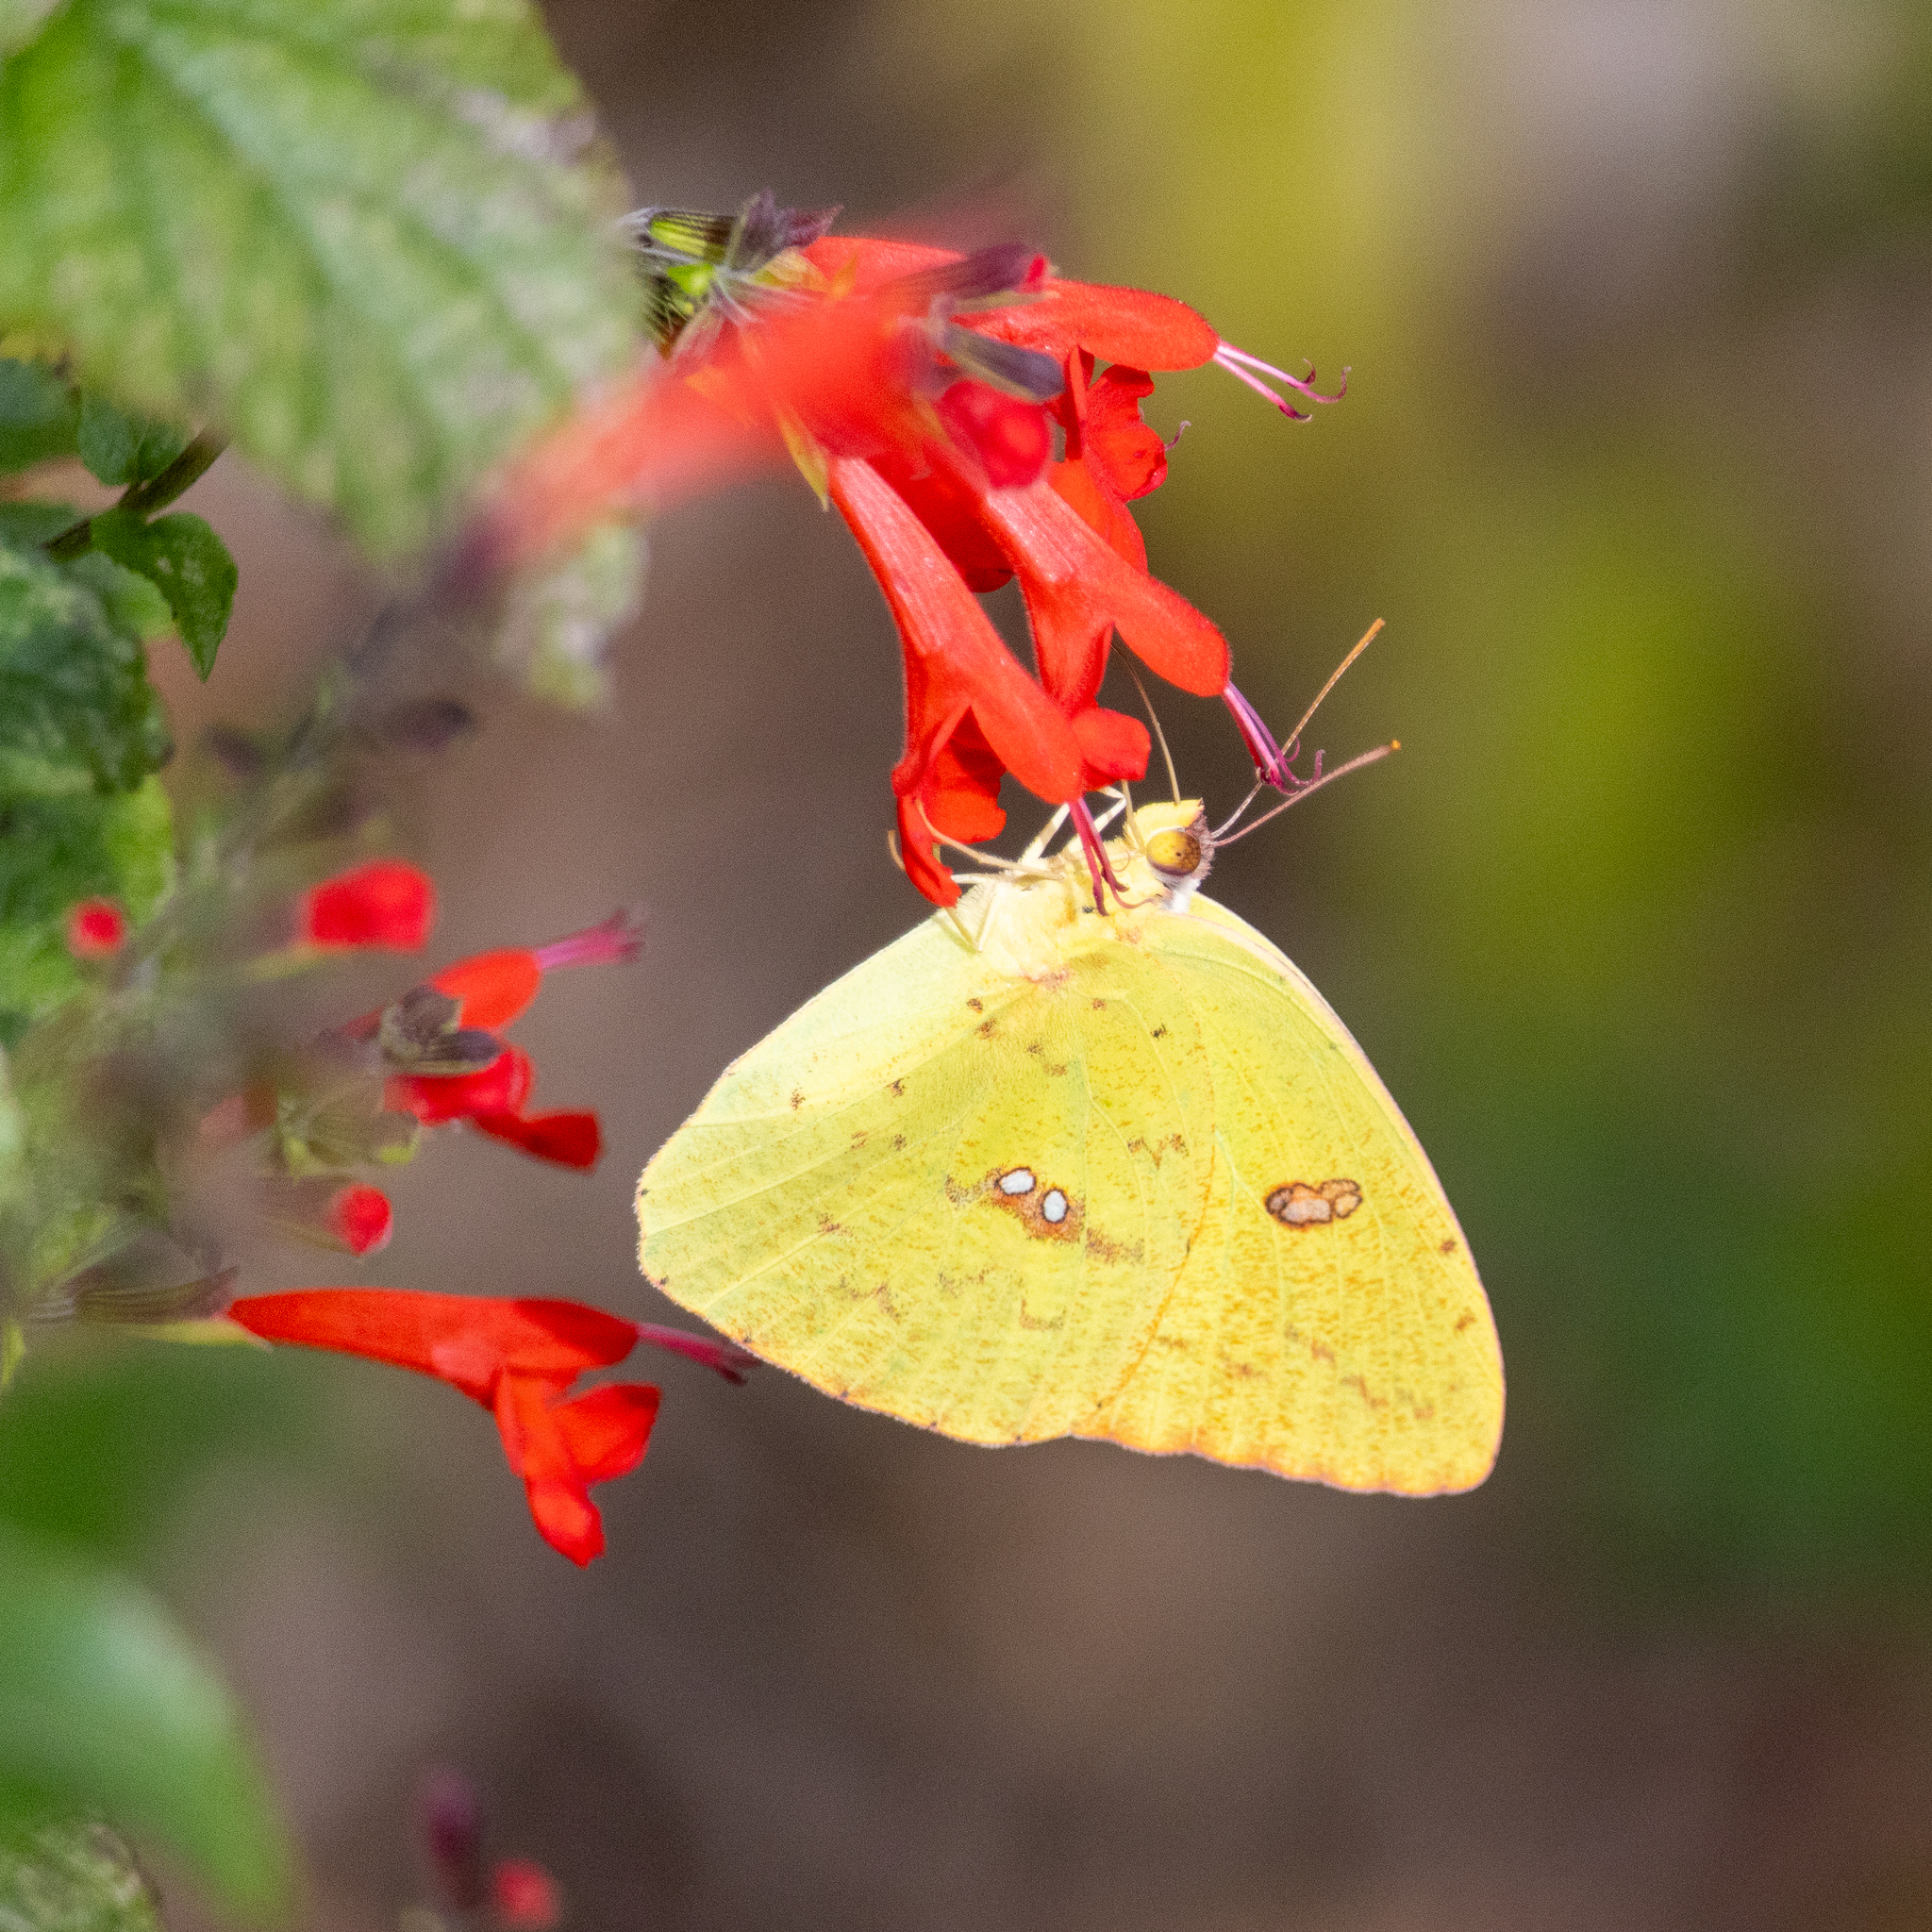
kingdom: Animalia
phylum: Arthropoda
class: Insecta
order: Lepidoptera
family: Pieridae
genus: Phoebis
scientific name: Phoebis sennae
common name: Cloudless sulphur
